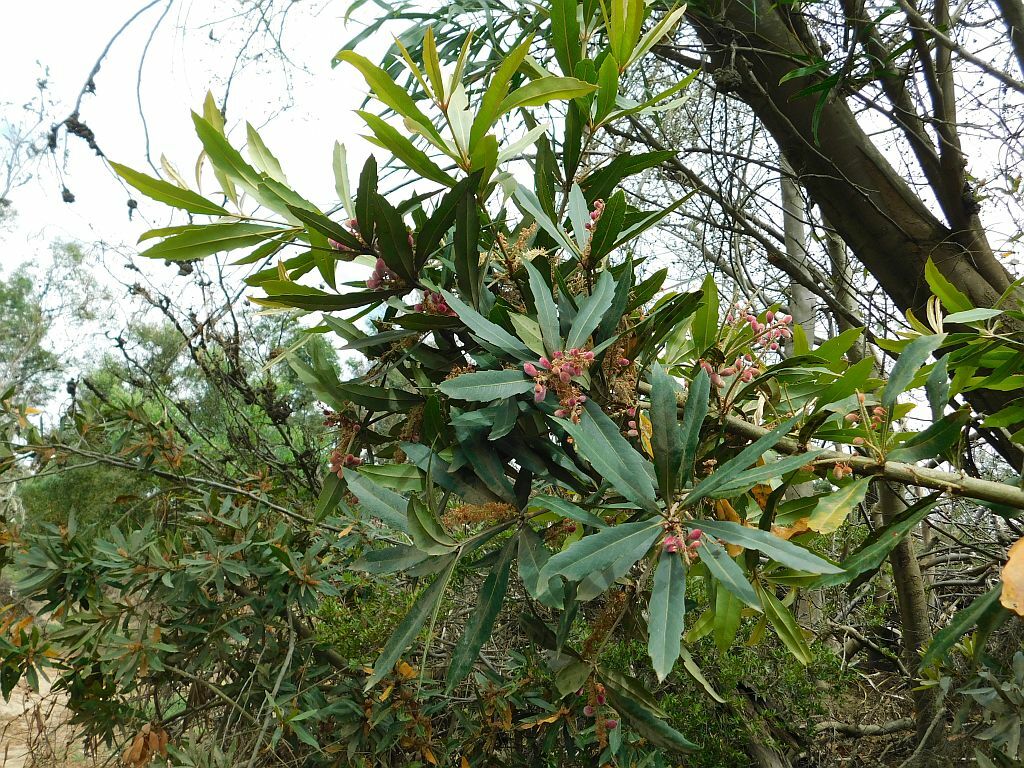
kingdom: Plantae
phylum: Tracheophyta
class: Magnoliopsida
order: Proteales
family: Proteaceae
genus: Brabejum
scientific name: Brabejum stellatifolium
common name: Wild almond
